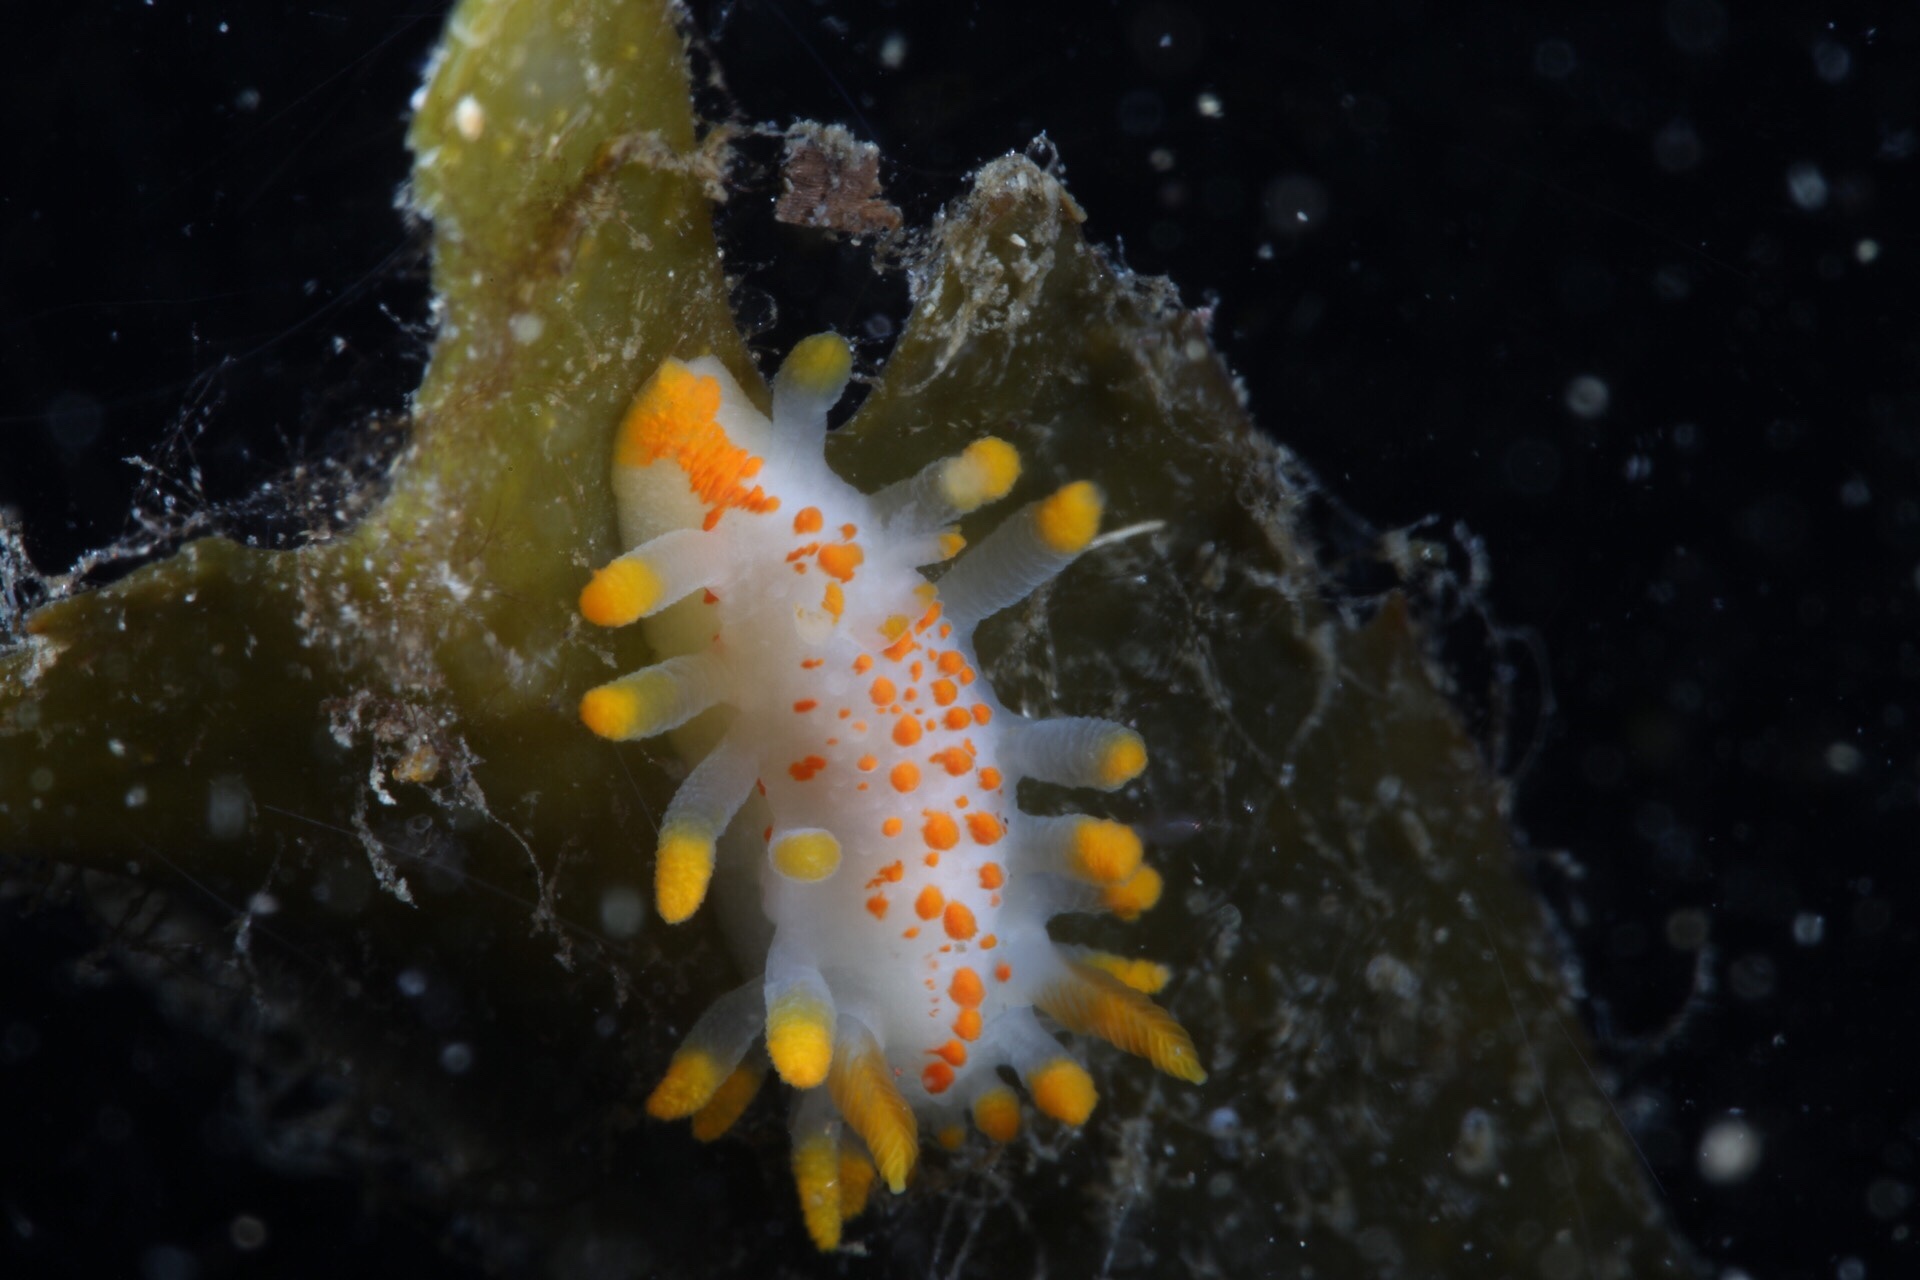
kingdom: Animalia
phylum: Mollusca
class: Gastropoda
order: Nudibranchia
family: Polyceridae
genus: Limacia
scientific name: Limacia clavigera
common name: Orange-clubbed sea slug
